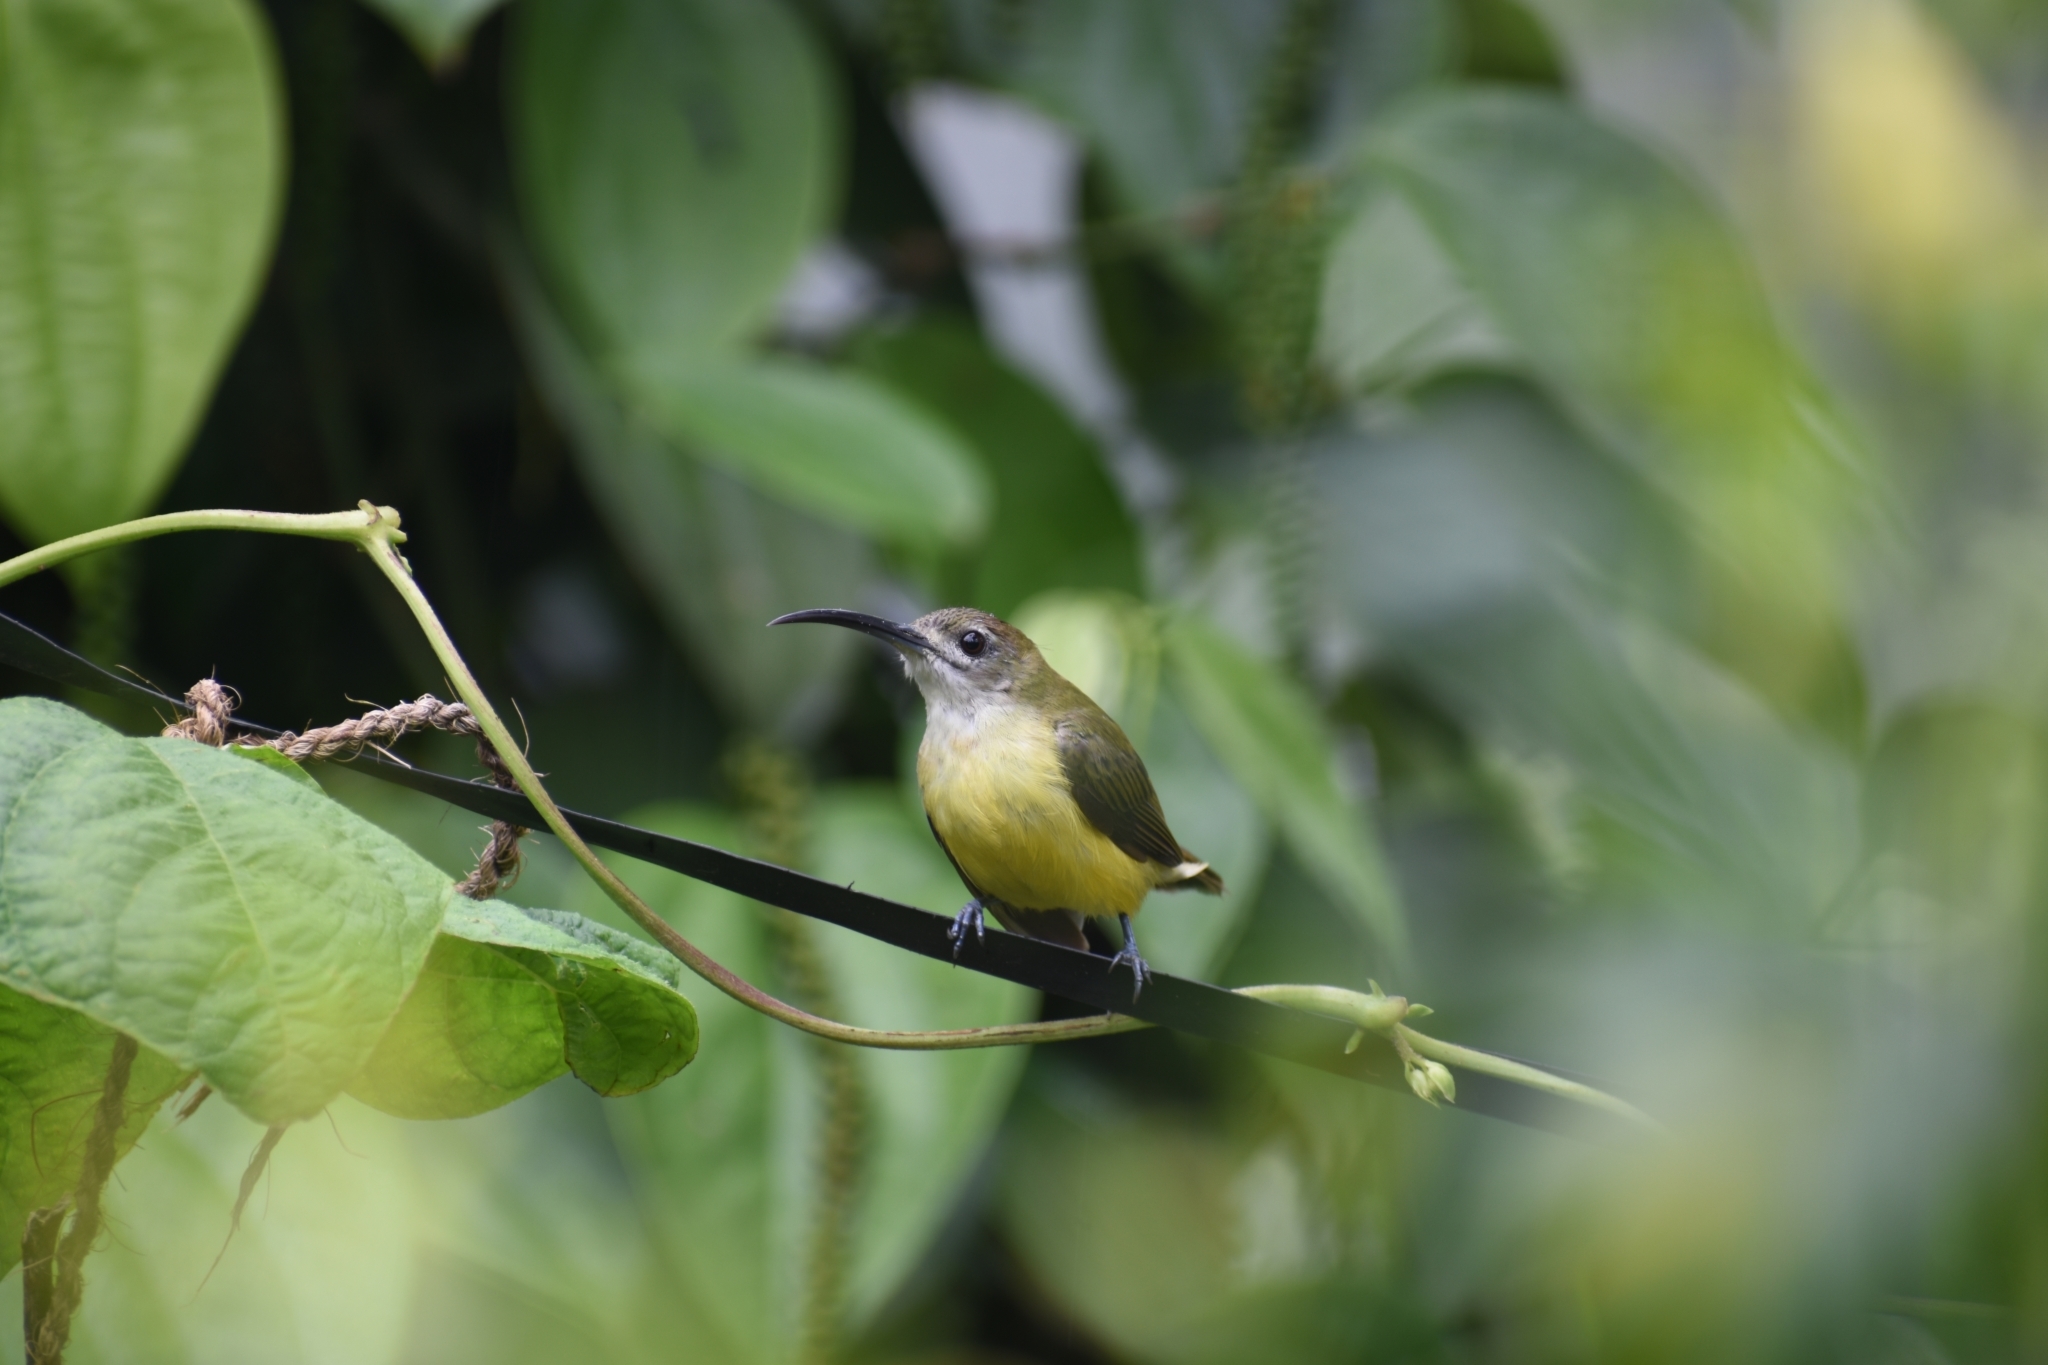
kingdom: Animalia
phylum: Chordata
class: Aves
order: Passeriformes
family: Nectariniidae
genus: Arachnothera
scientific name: Arachnothera longirostra
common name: Little spiderhunter
